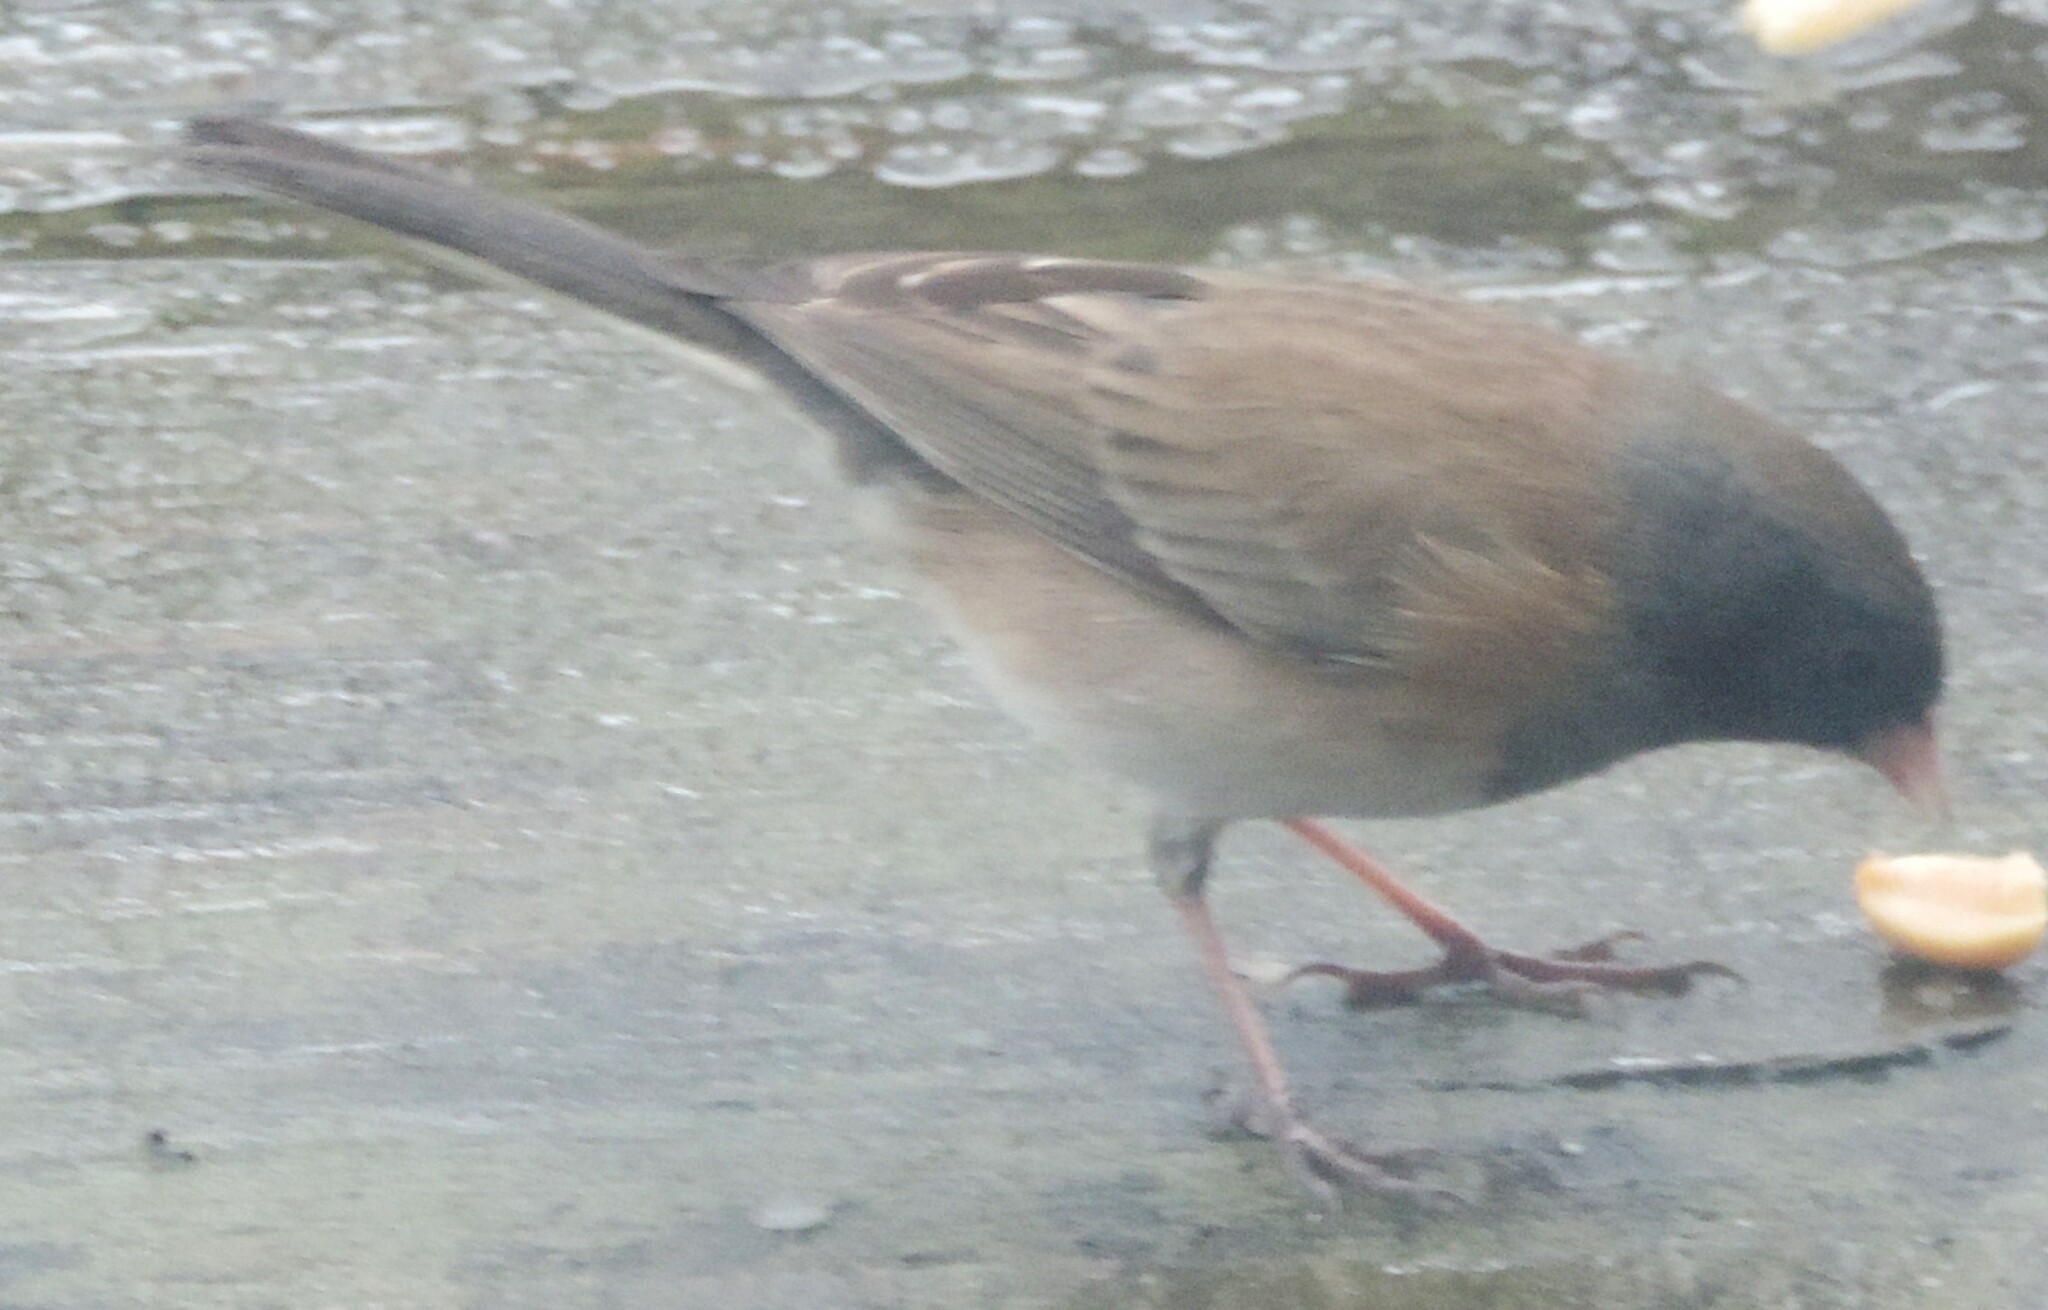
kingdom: Animalia
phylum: Chordata
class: Aves
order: Passeriformes
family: Passerellidae
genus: Junco
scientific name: Junco hyemalis
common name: Dark-eyed junco
